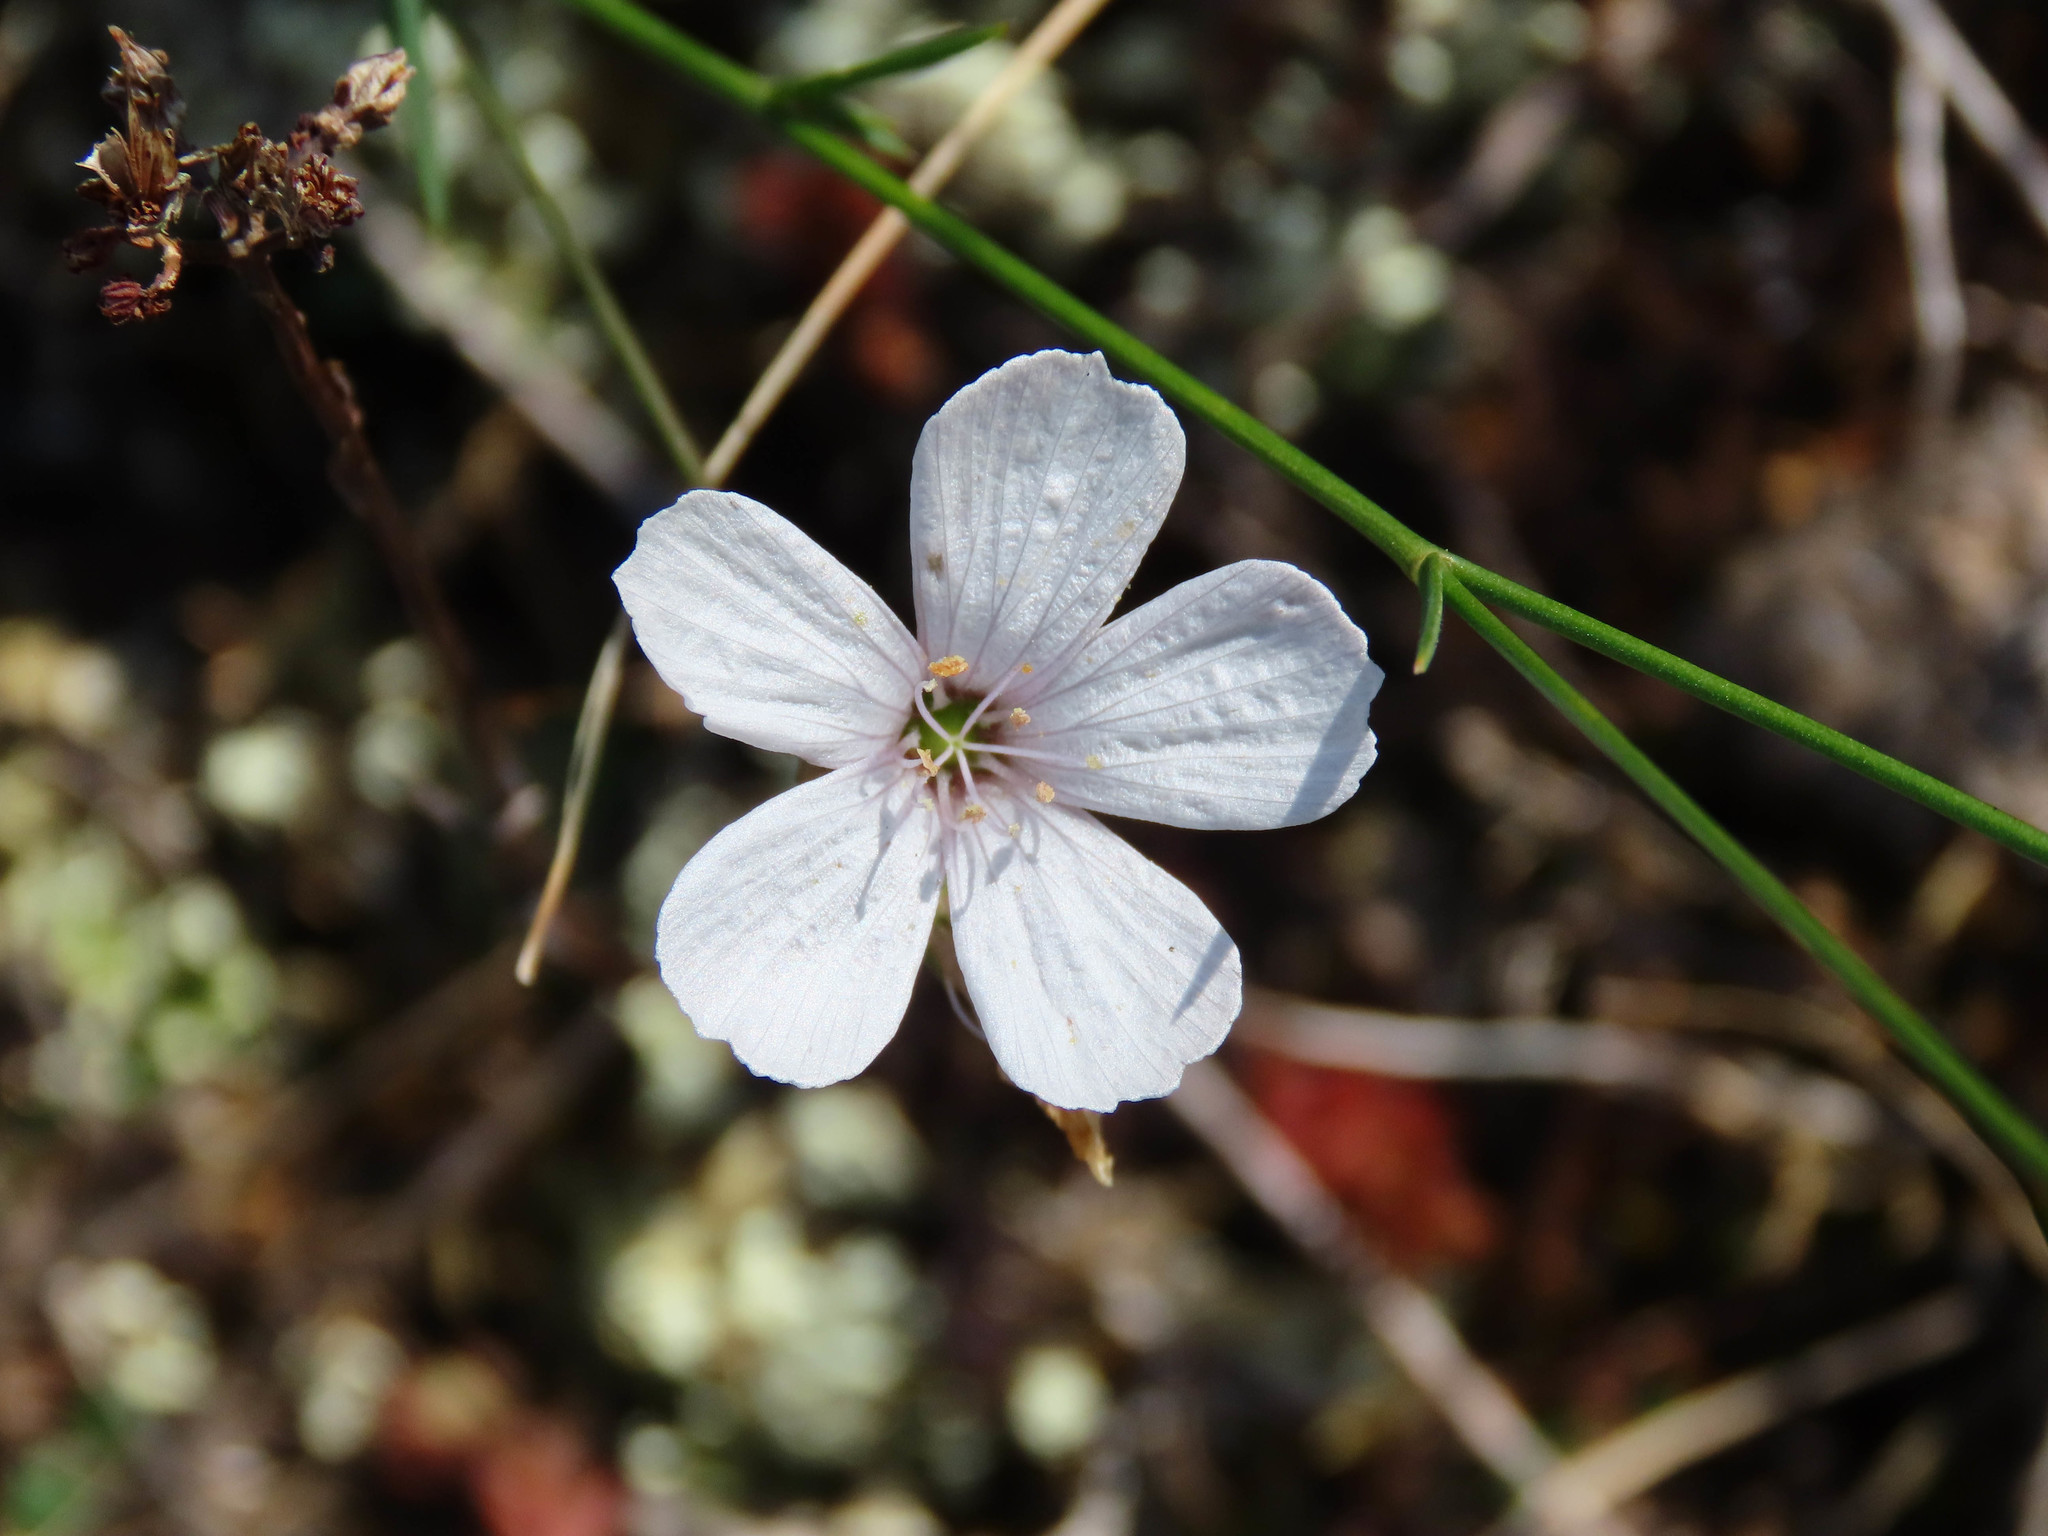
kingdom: Plantae
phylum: Tracheophyta
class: Magnoliopsida
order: Malpighiales
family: Linaceae
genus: Linum
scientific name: Linum tenuifolium
